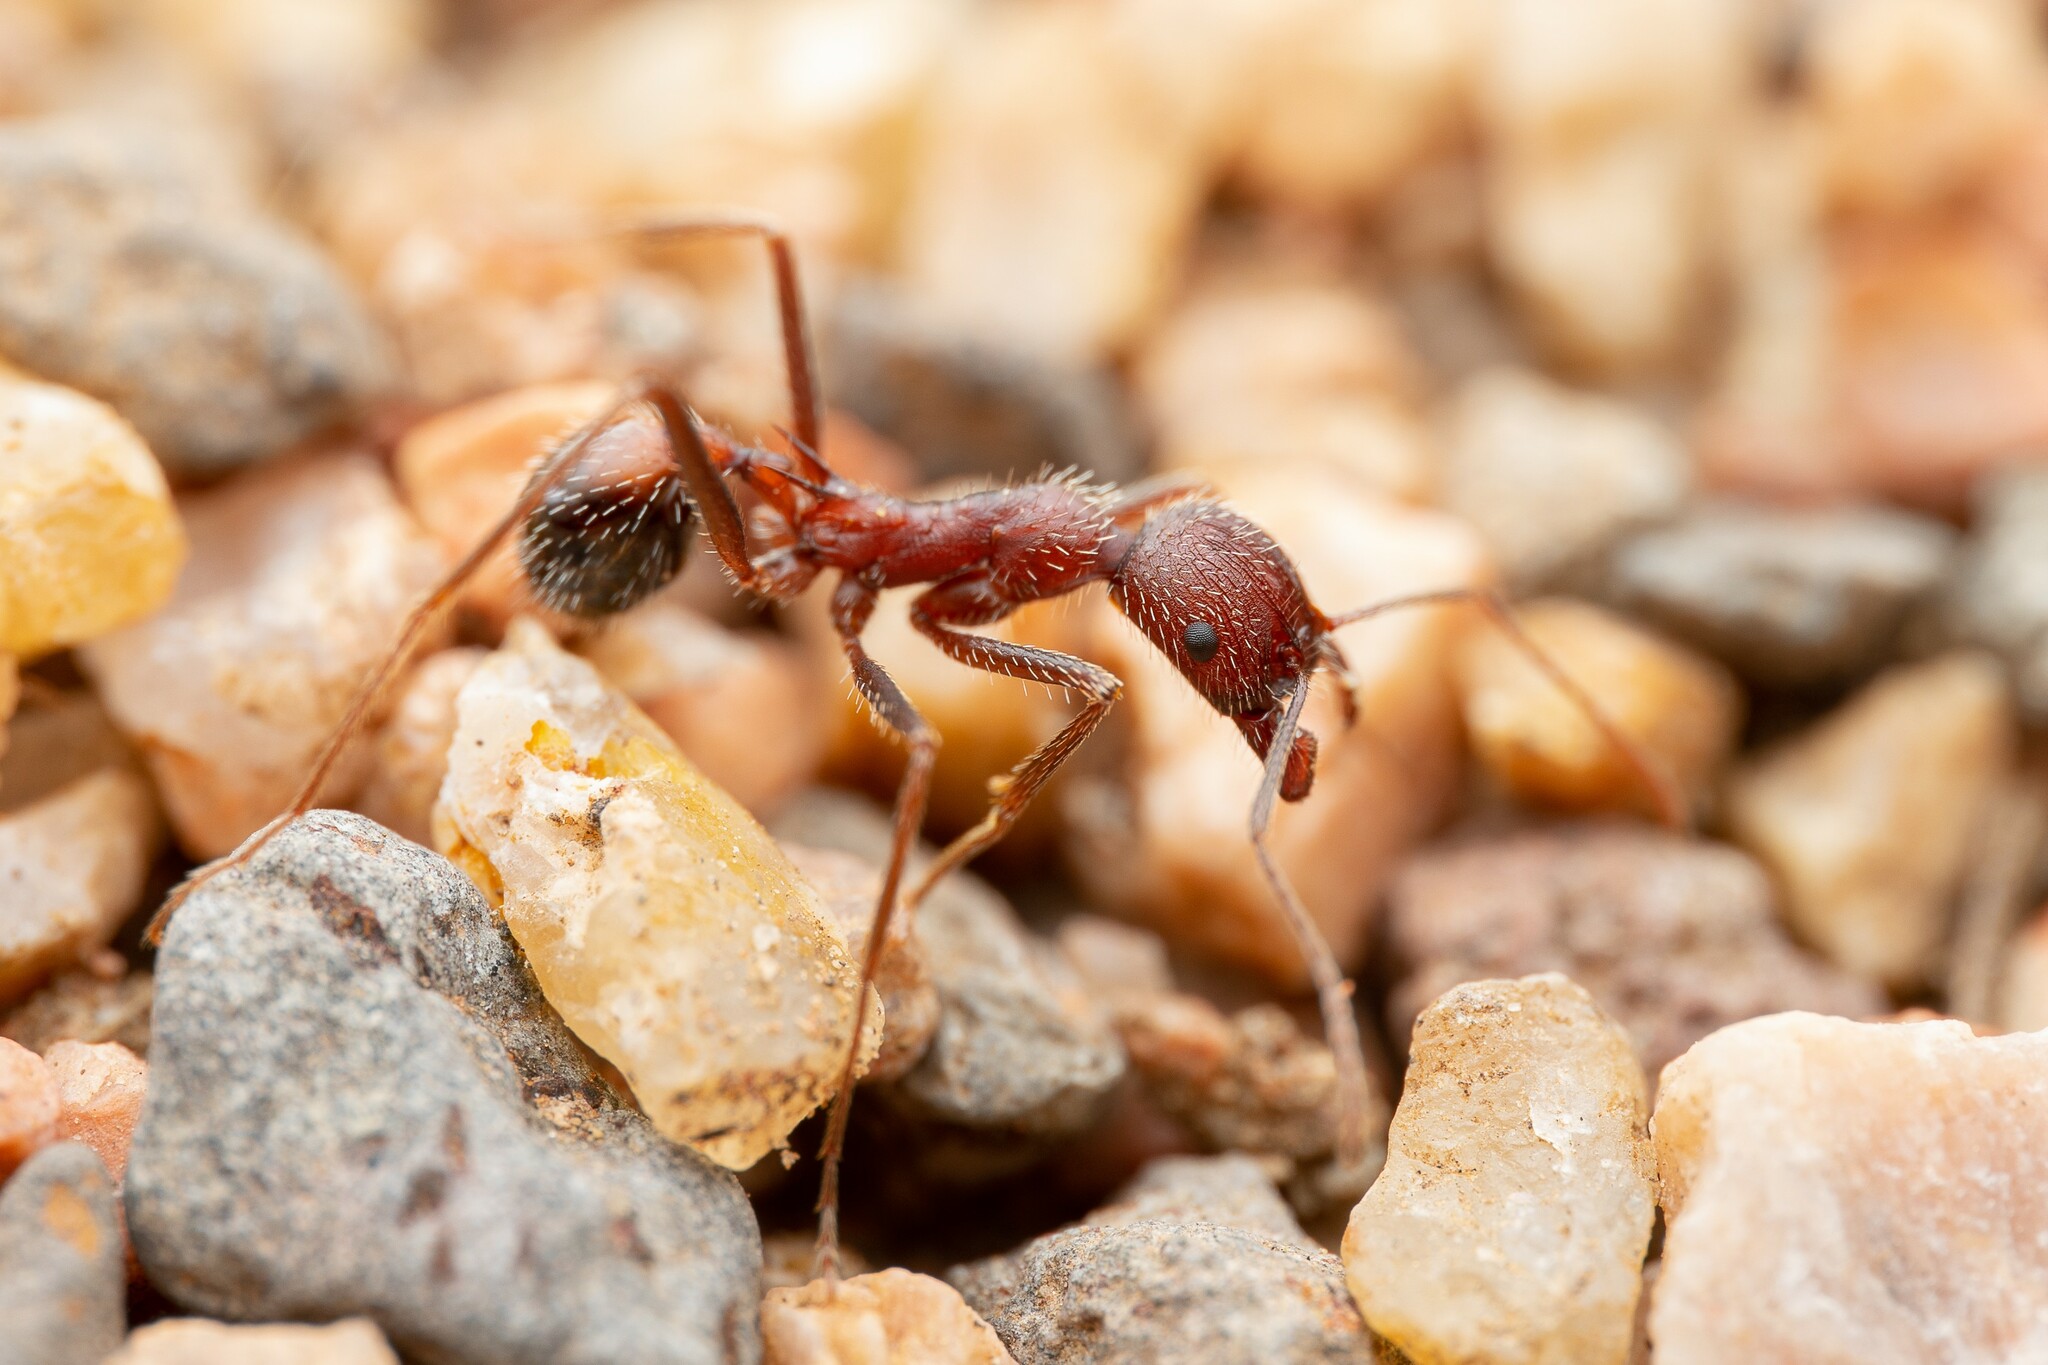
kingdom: Animalia
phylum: Arthropoda
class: Insecta
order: Hymenoptera
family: Formicidae
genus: Novomessor
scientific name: Novomessor albisetosa
